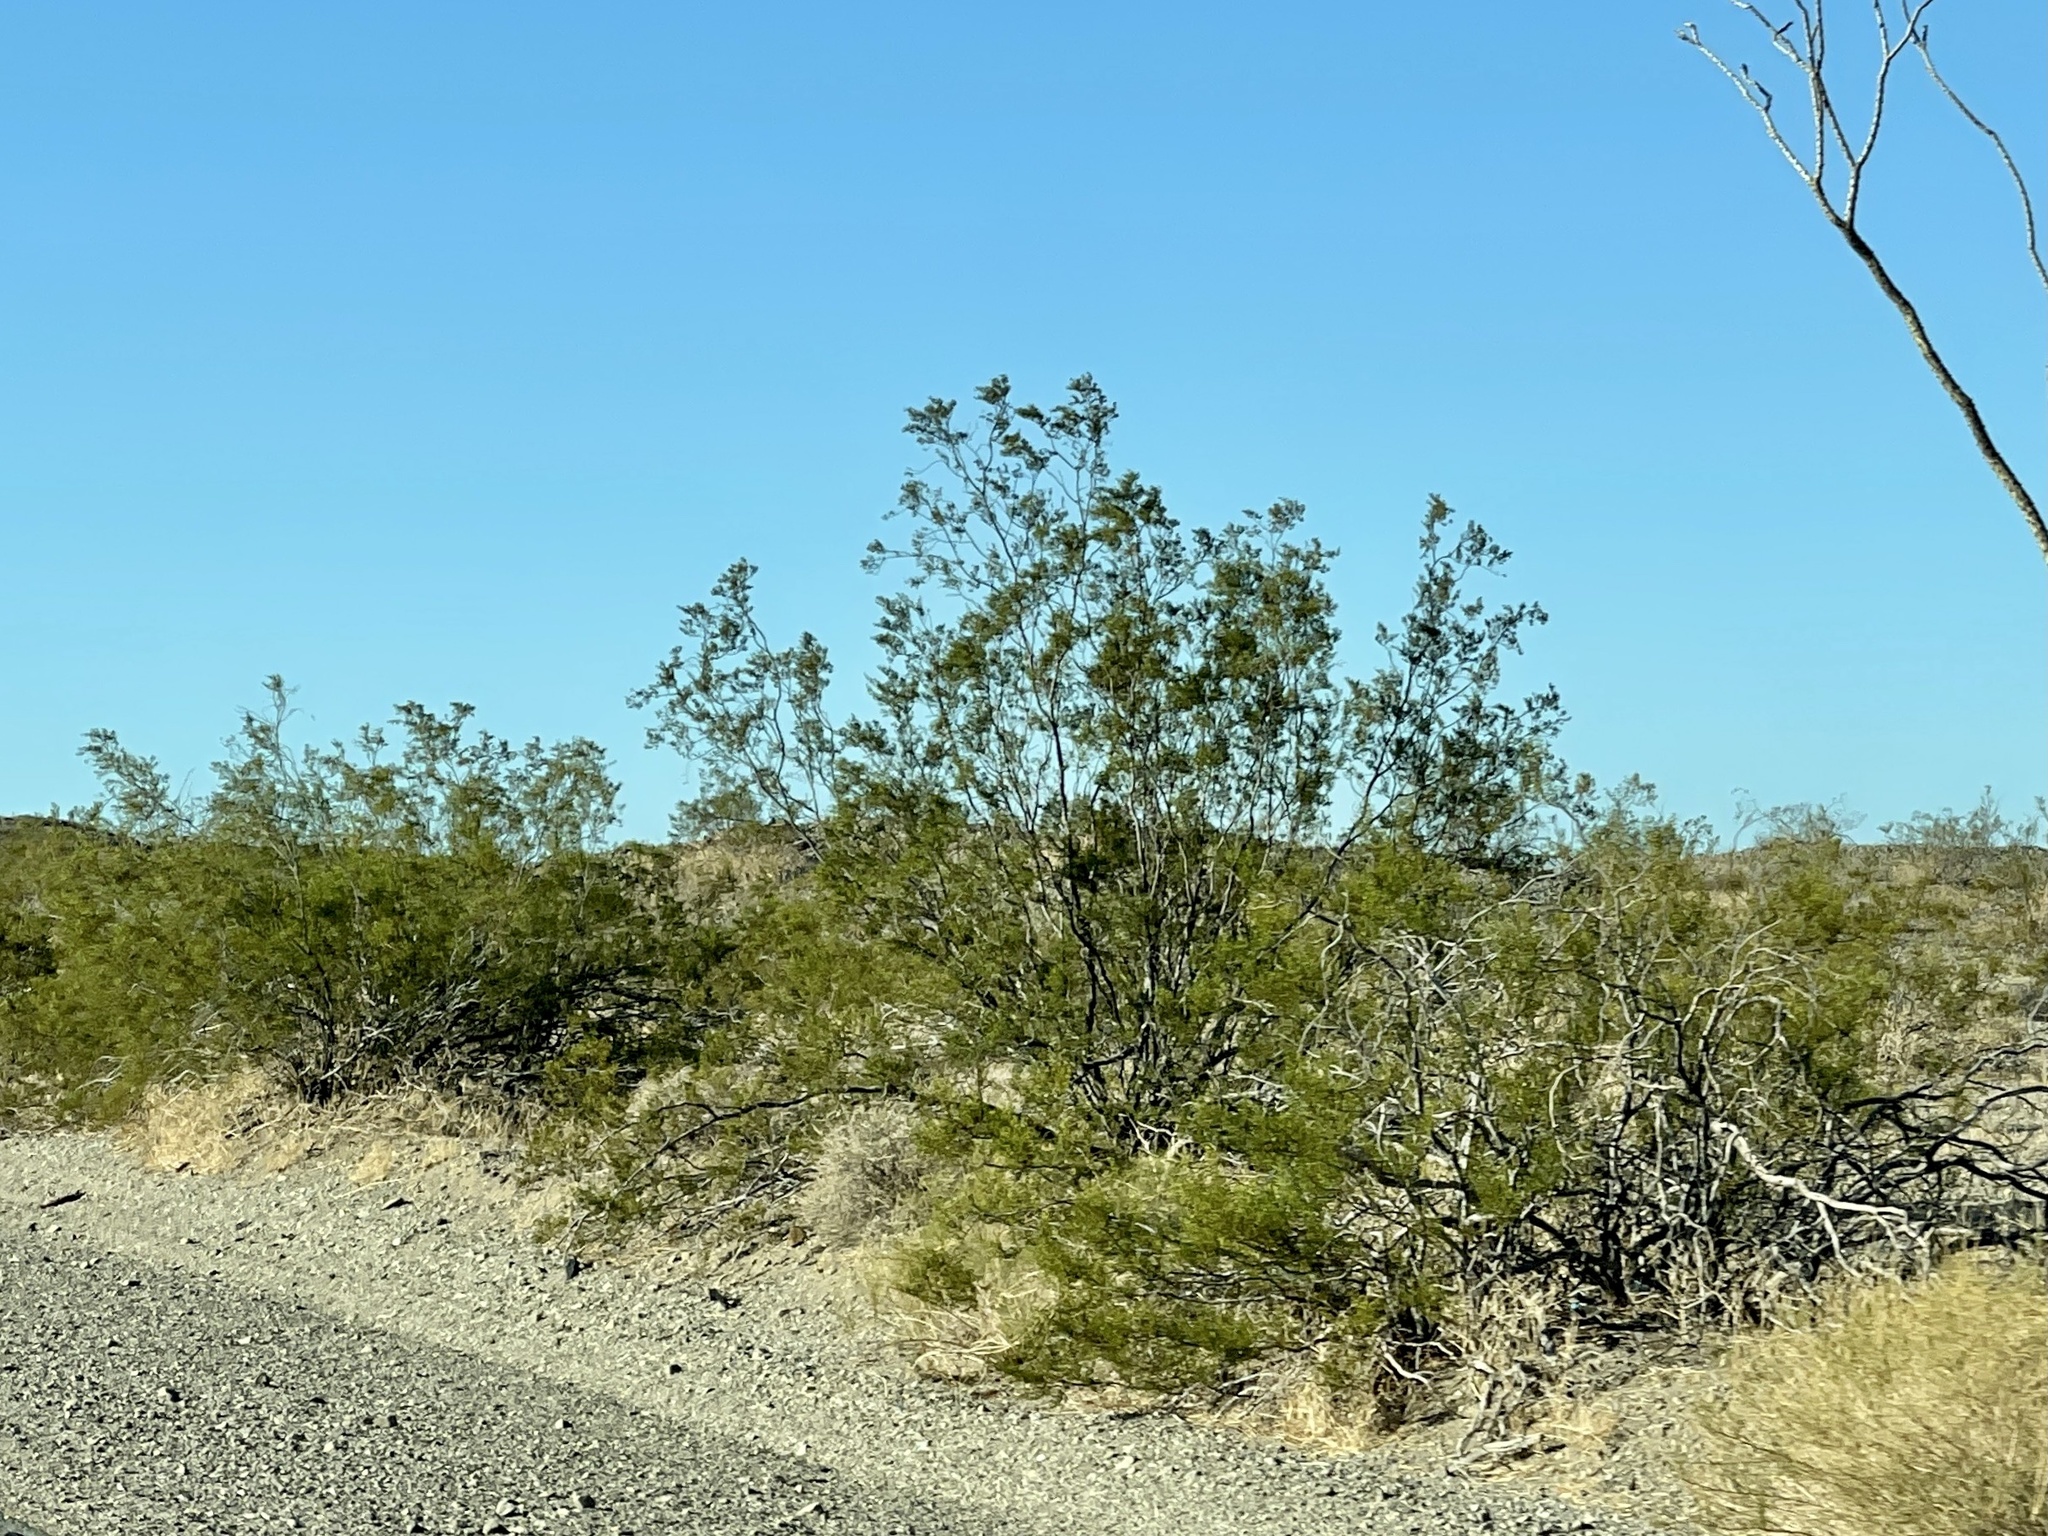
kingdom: Plantae
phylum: Tracheophyta
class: Magnoliopsida
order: Zygophyllales
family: Zygophyllaceae
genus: Larrea
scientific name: Larrea tridentata
